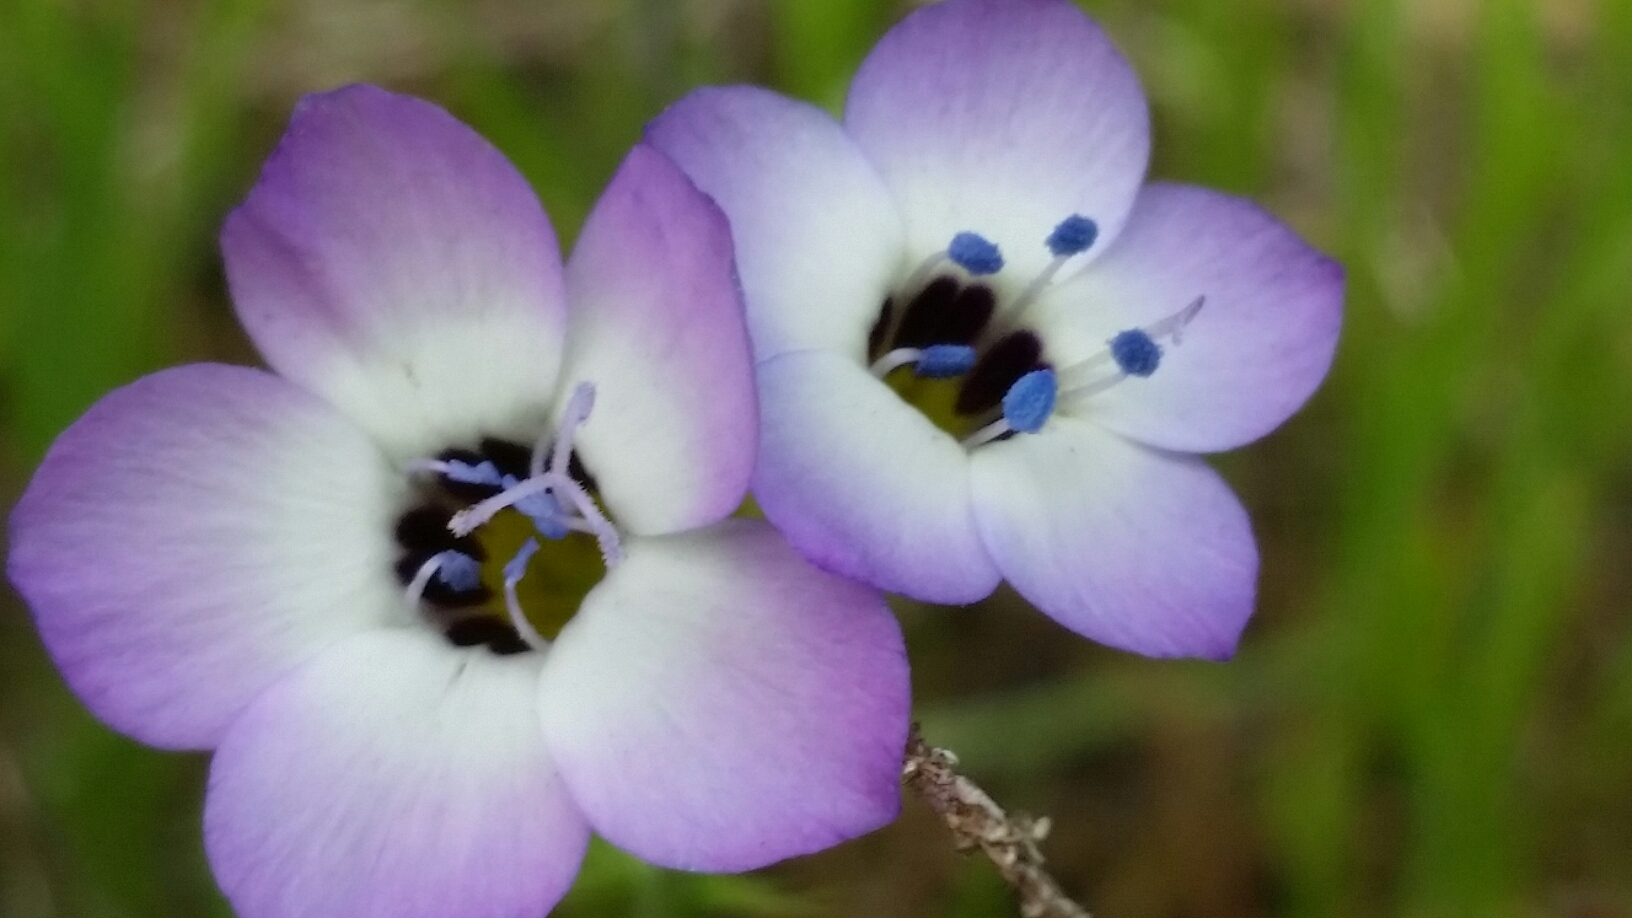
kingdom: Plantae
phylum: Tracheophyta
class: Magnoliopsida
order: Ericales
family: Polemoniaceae
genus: Gilia
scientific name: Gilia tricolor
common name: Bird's-eyes
